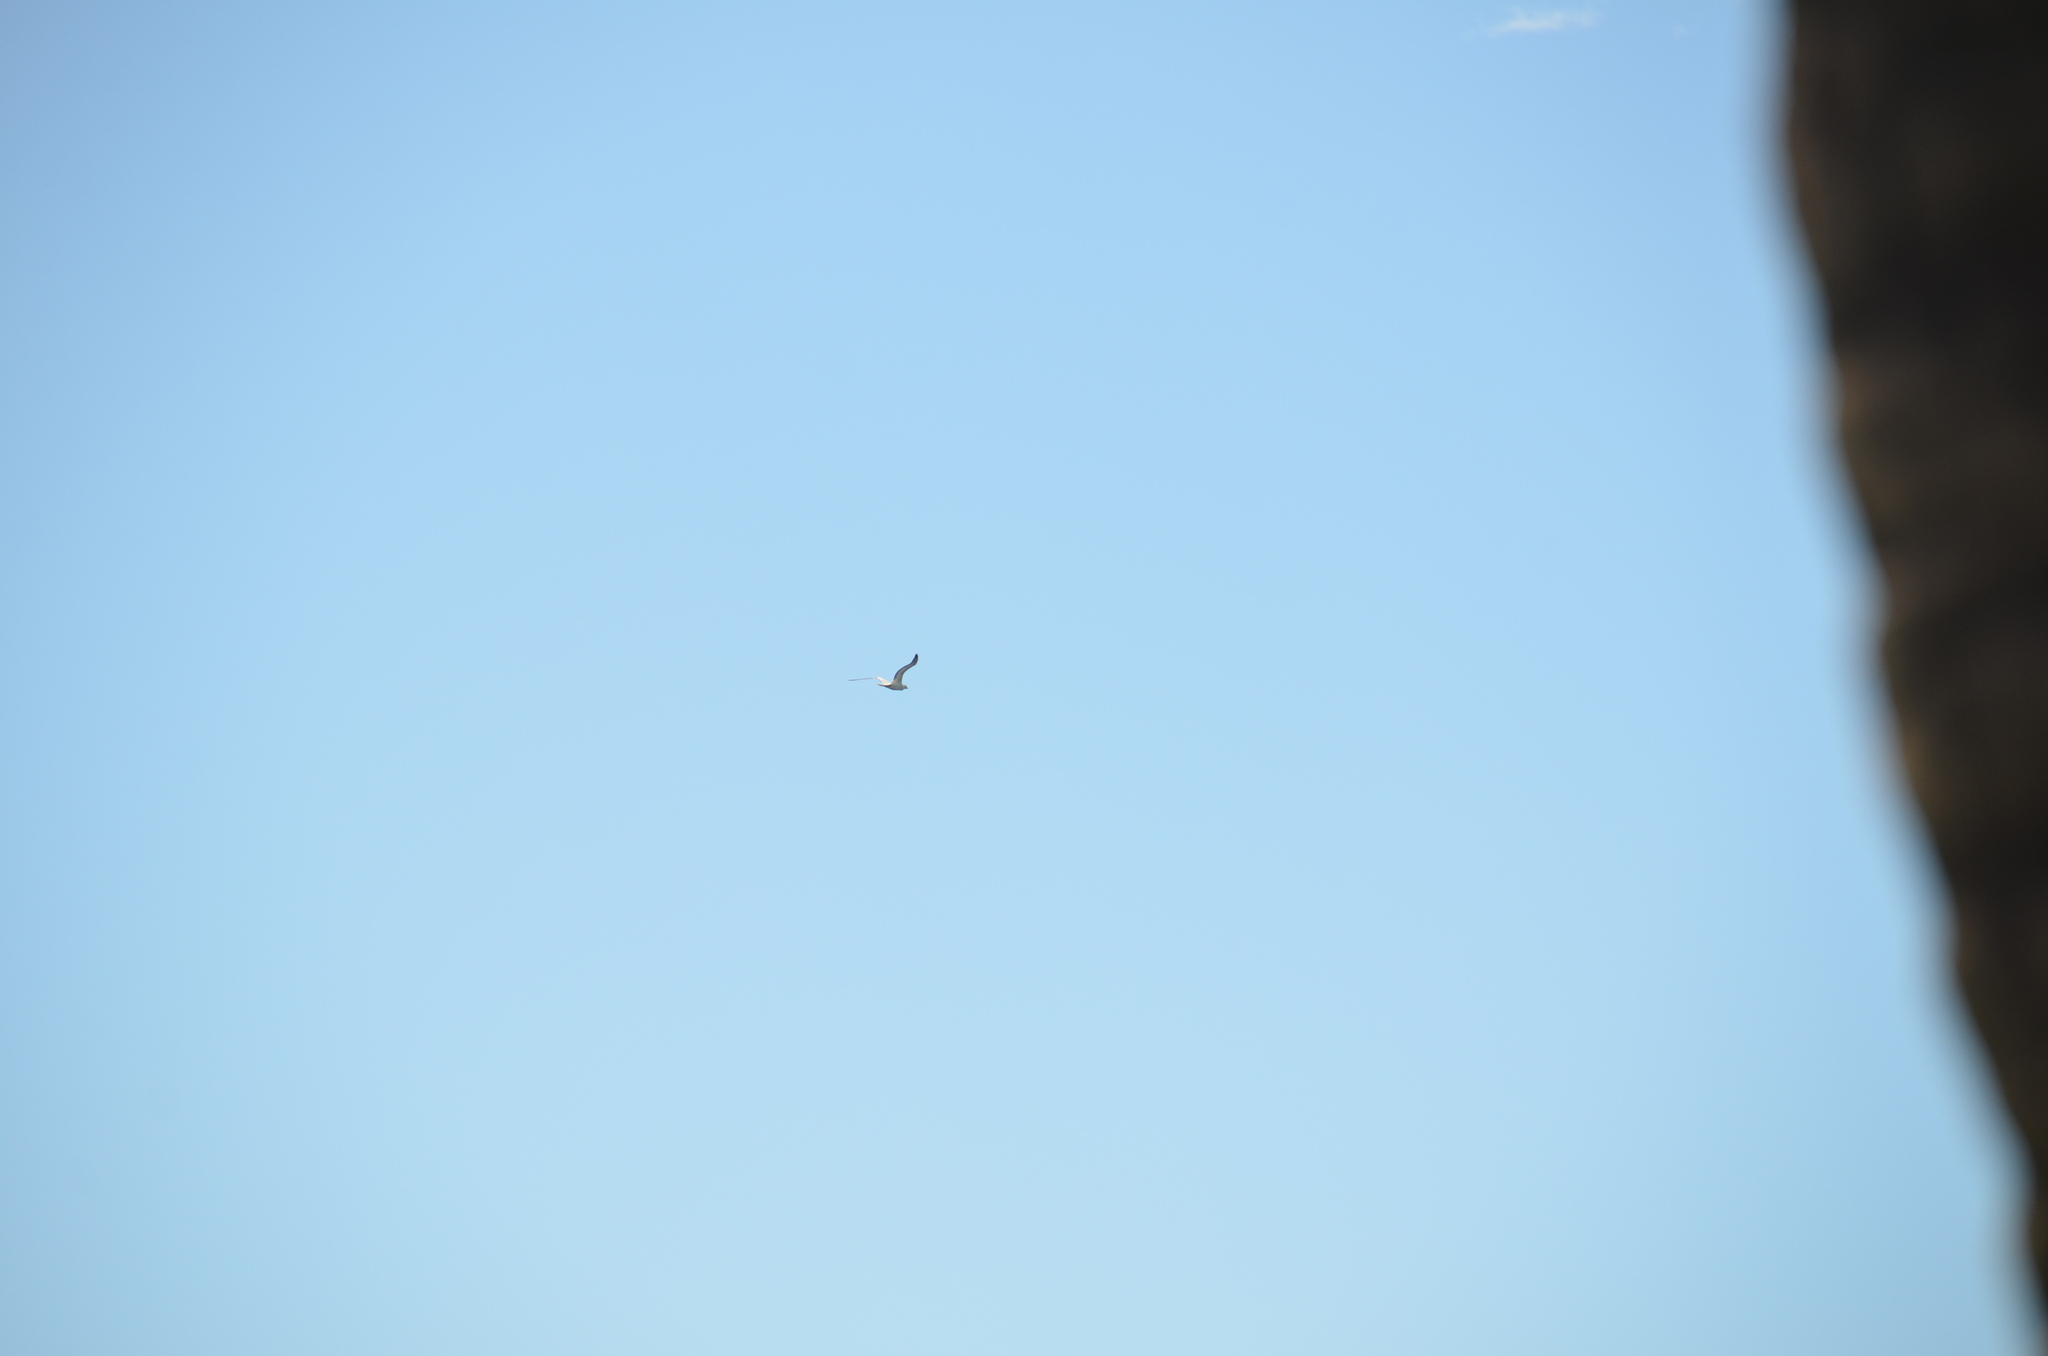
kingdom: Animalia
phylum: Chordata
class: Aves
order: Suliformes
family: Sulidae
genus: Sula
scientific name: Sula sula
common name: Red-footed booby
